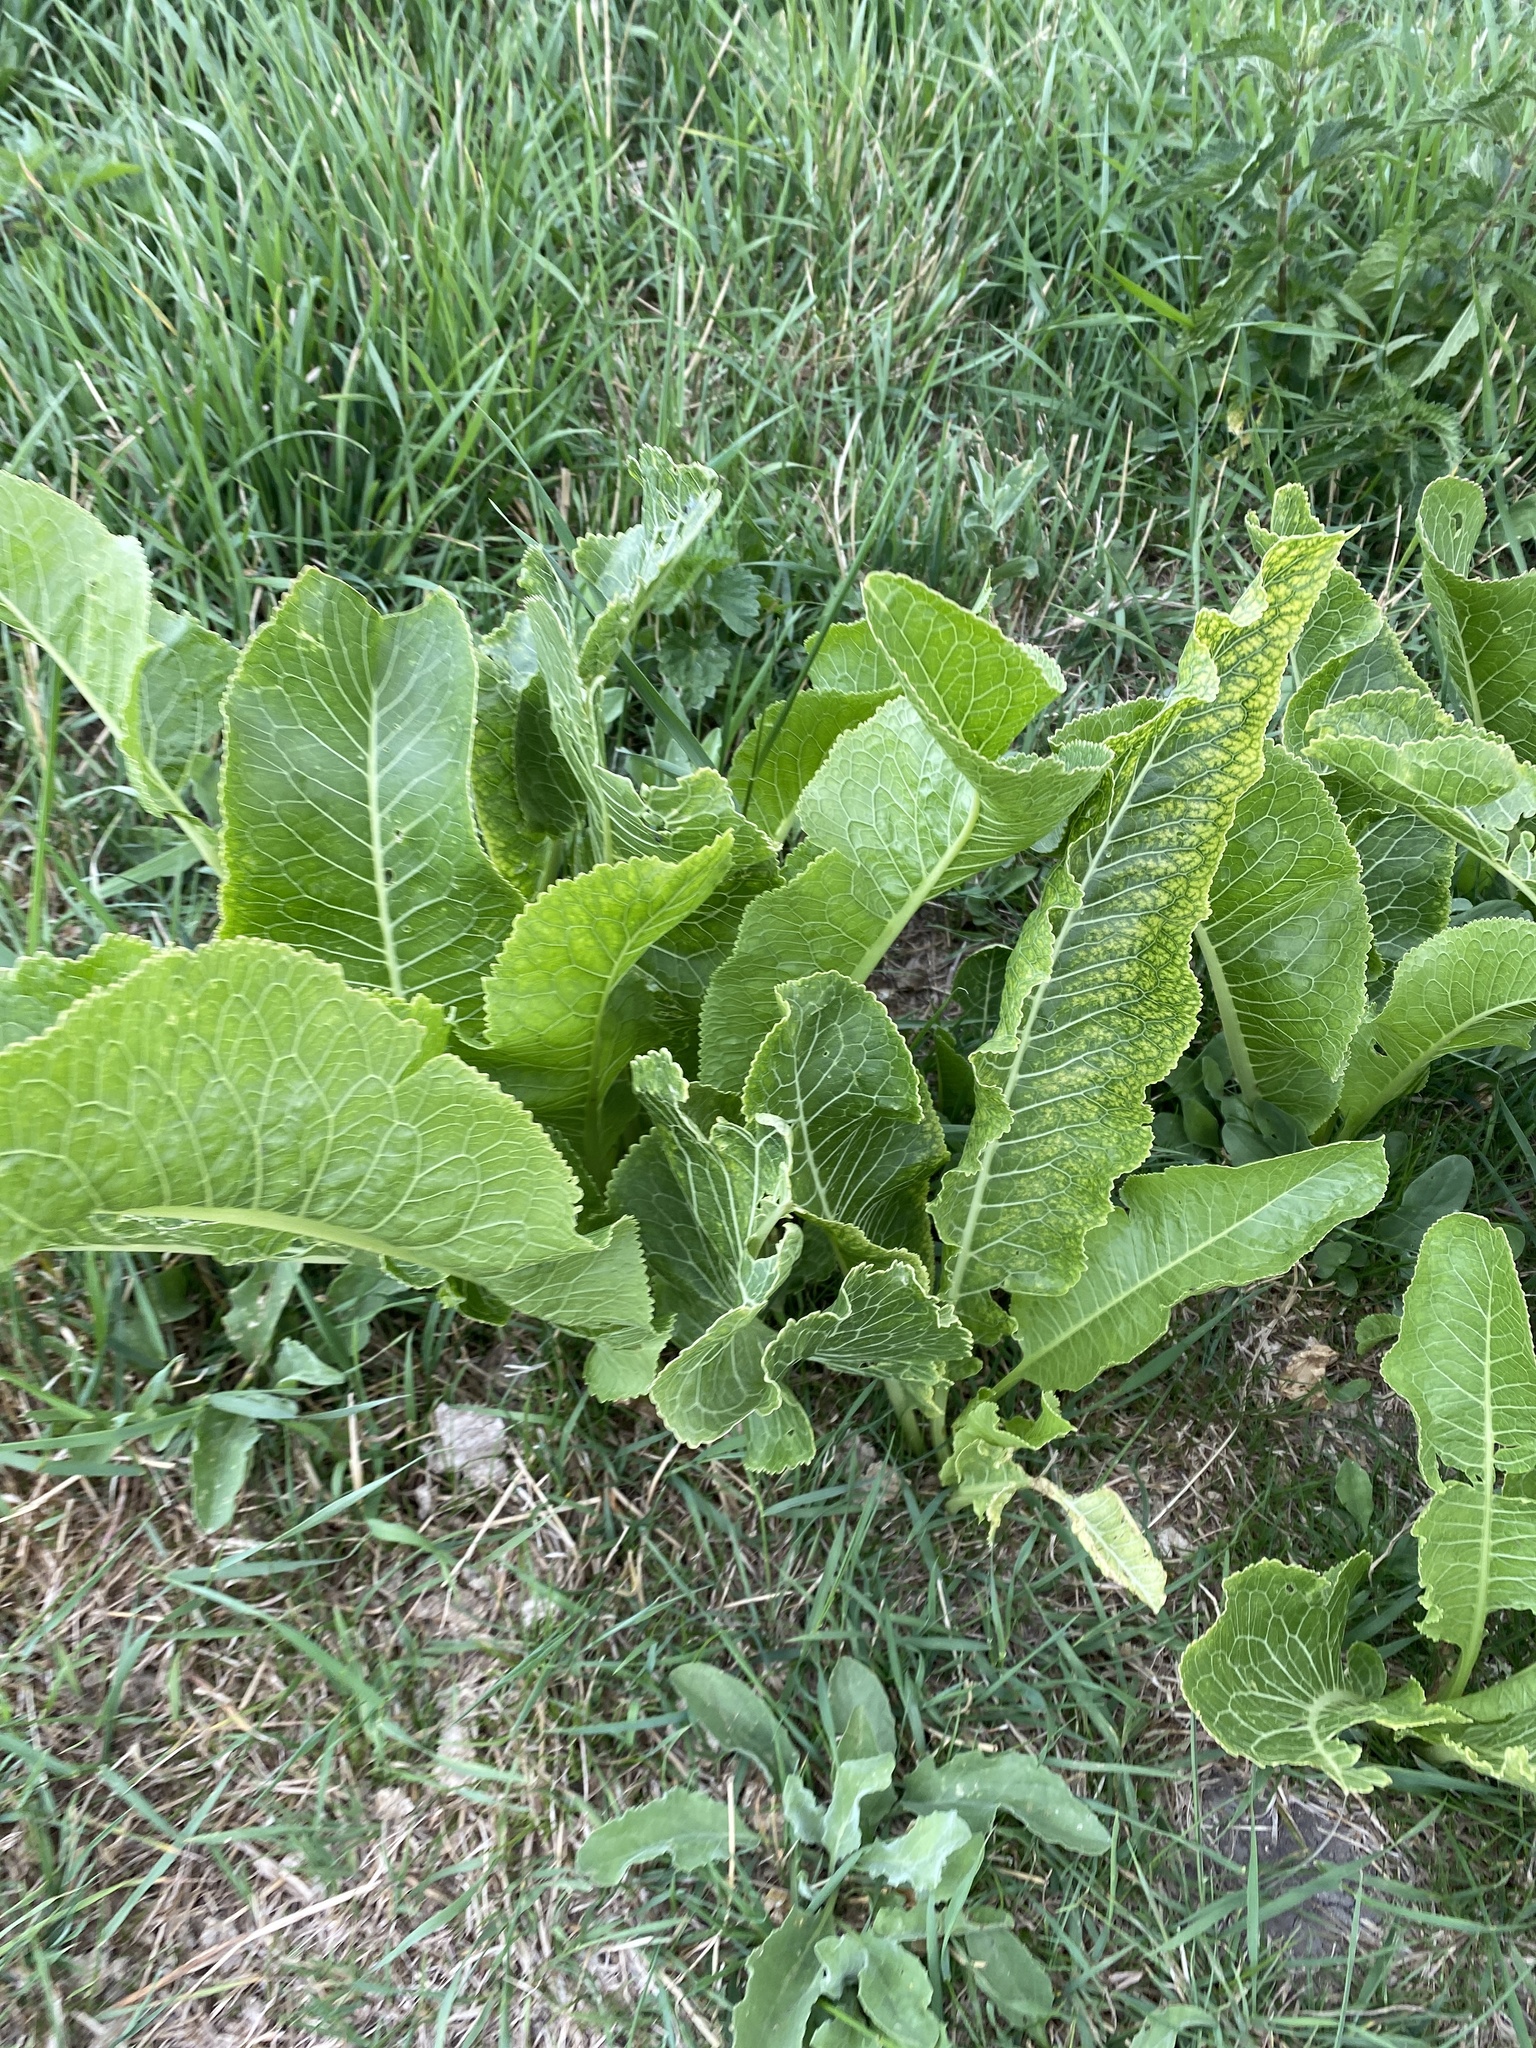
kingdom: Plantae
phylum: Tracheophyta
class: Magnoliopsida
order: Brassicales
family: Brassicaceae
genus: Armoracia
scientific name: Armoracia rusticana
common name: Horseradish
